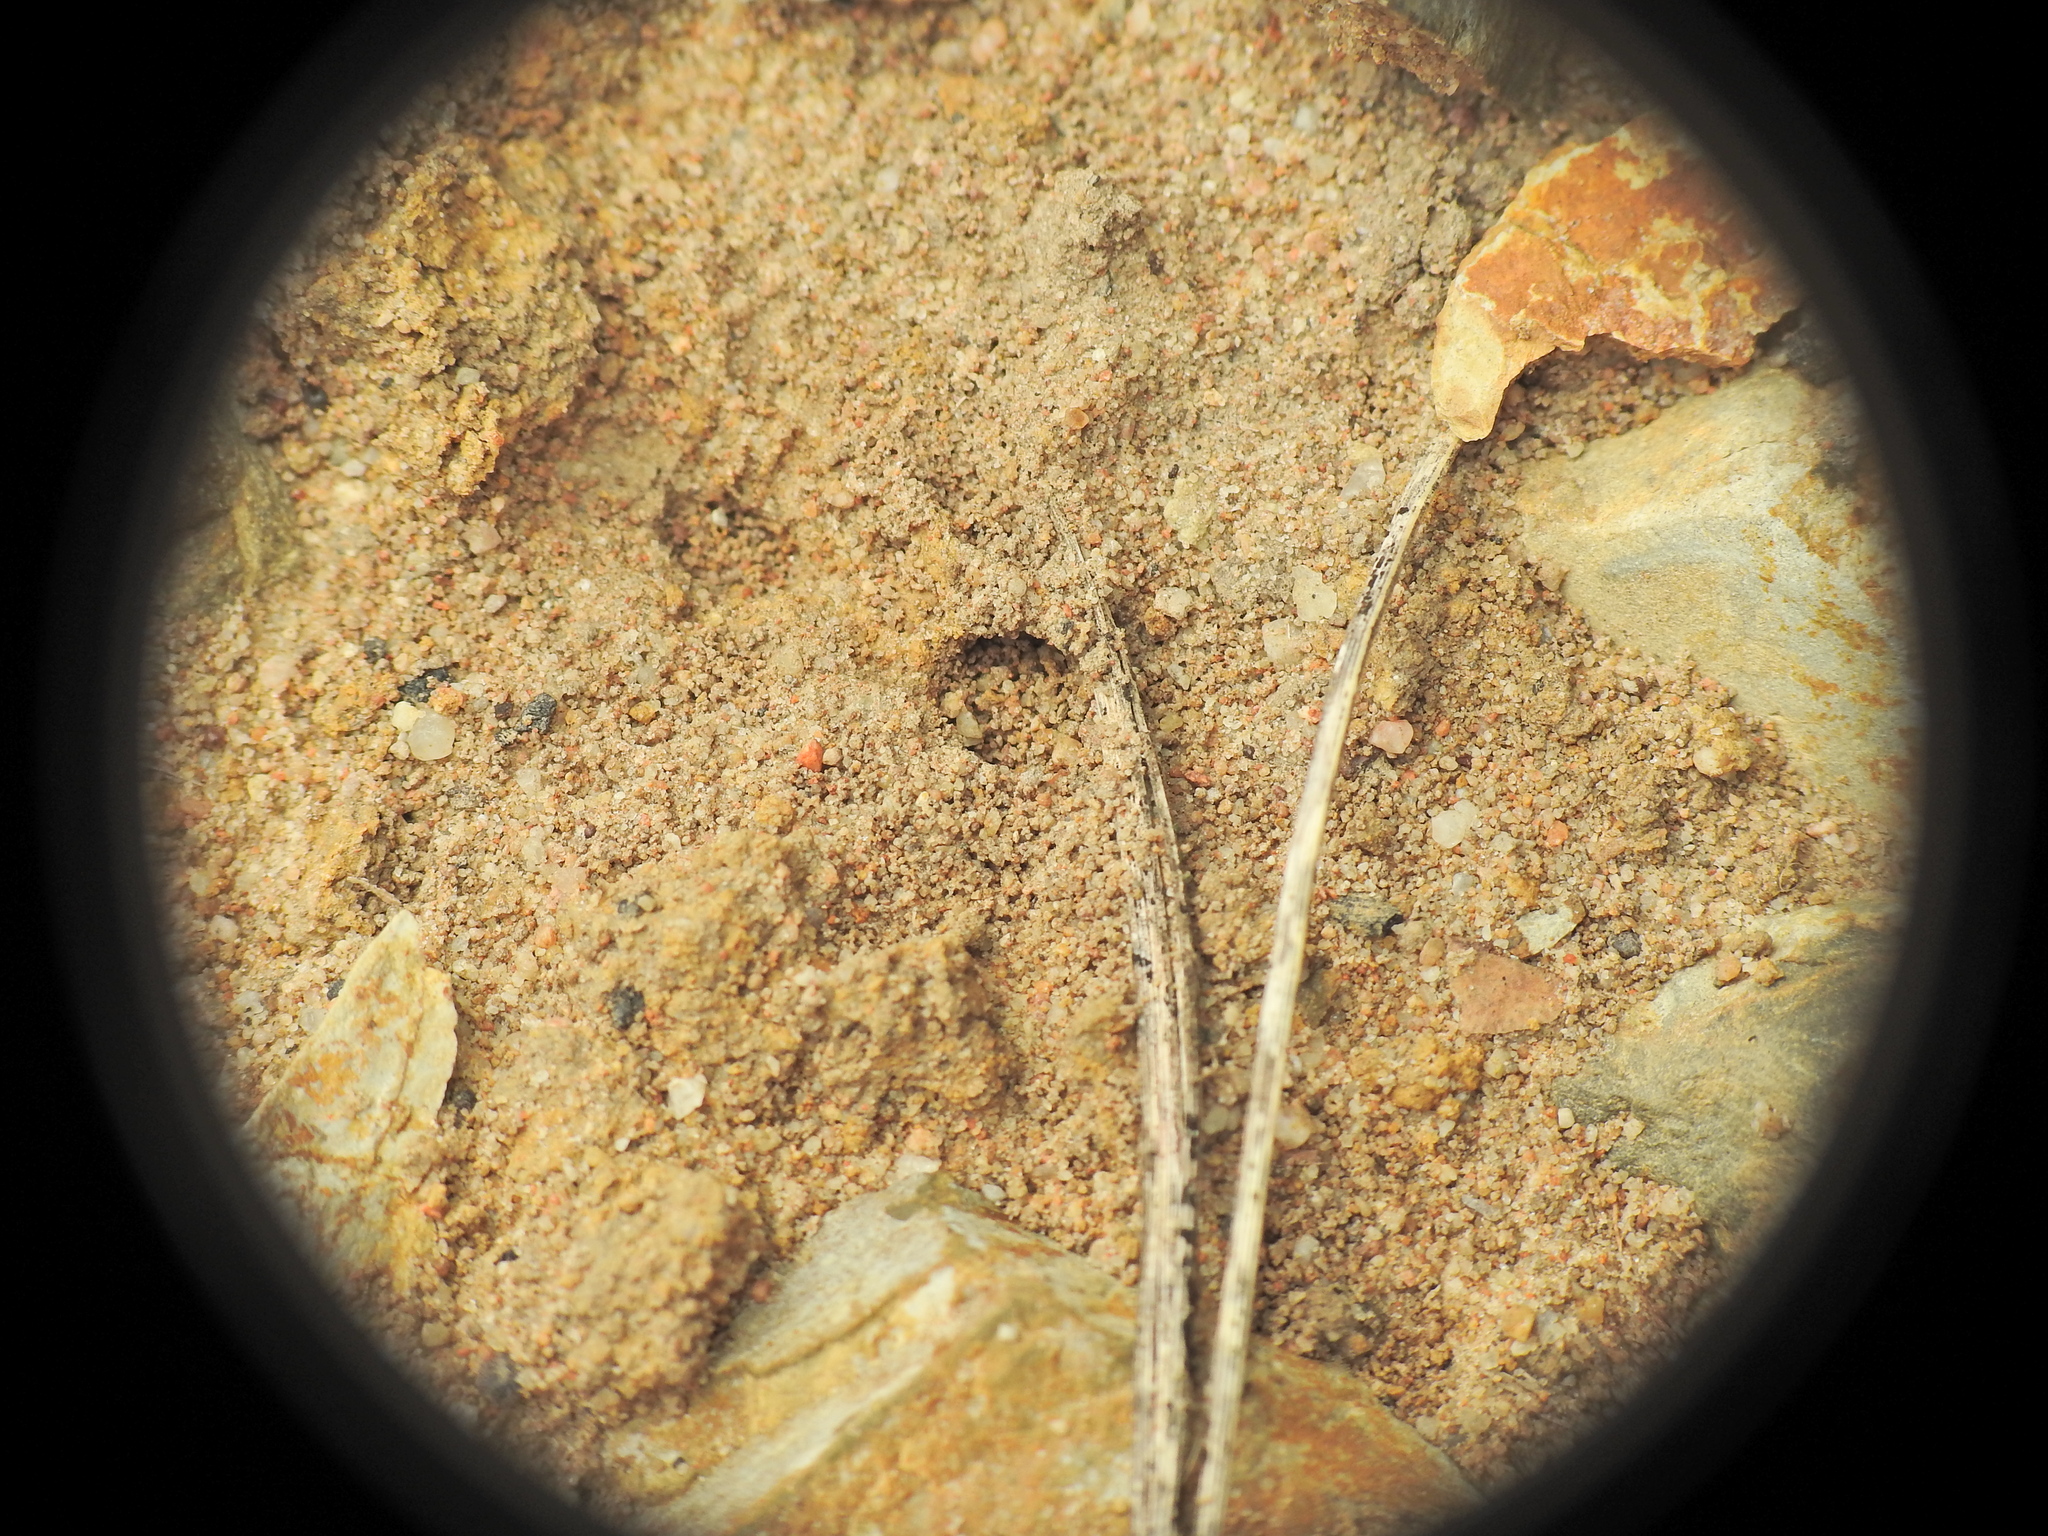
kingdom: Animalia
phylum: Arthropoda
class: Insecta
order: Hymenoptera
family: Formicidae
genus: Pheidole
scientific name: Pheidole
